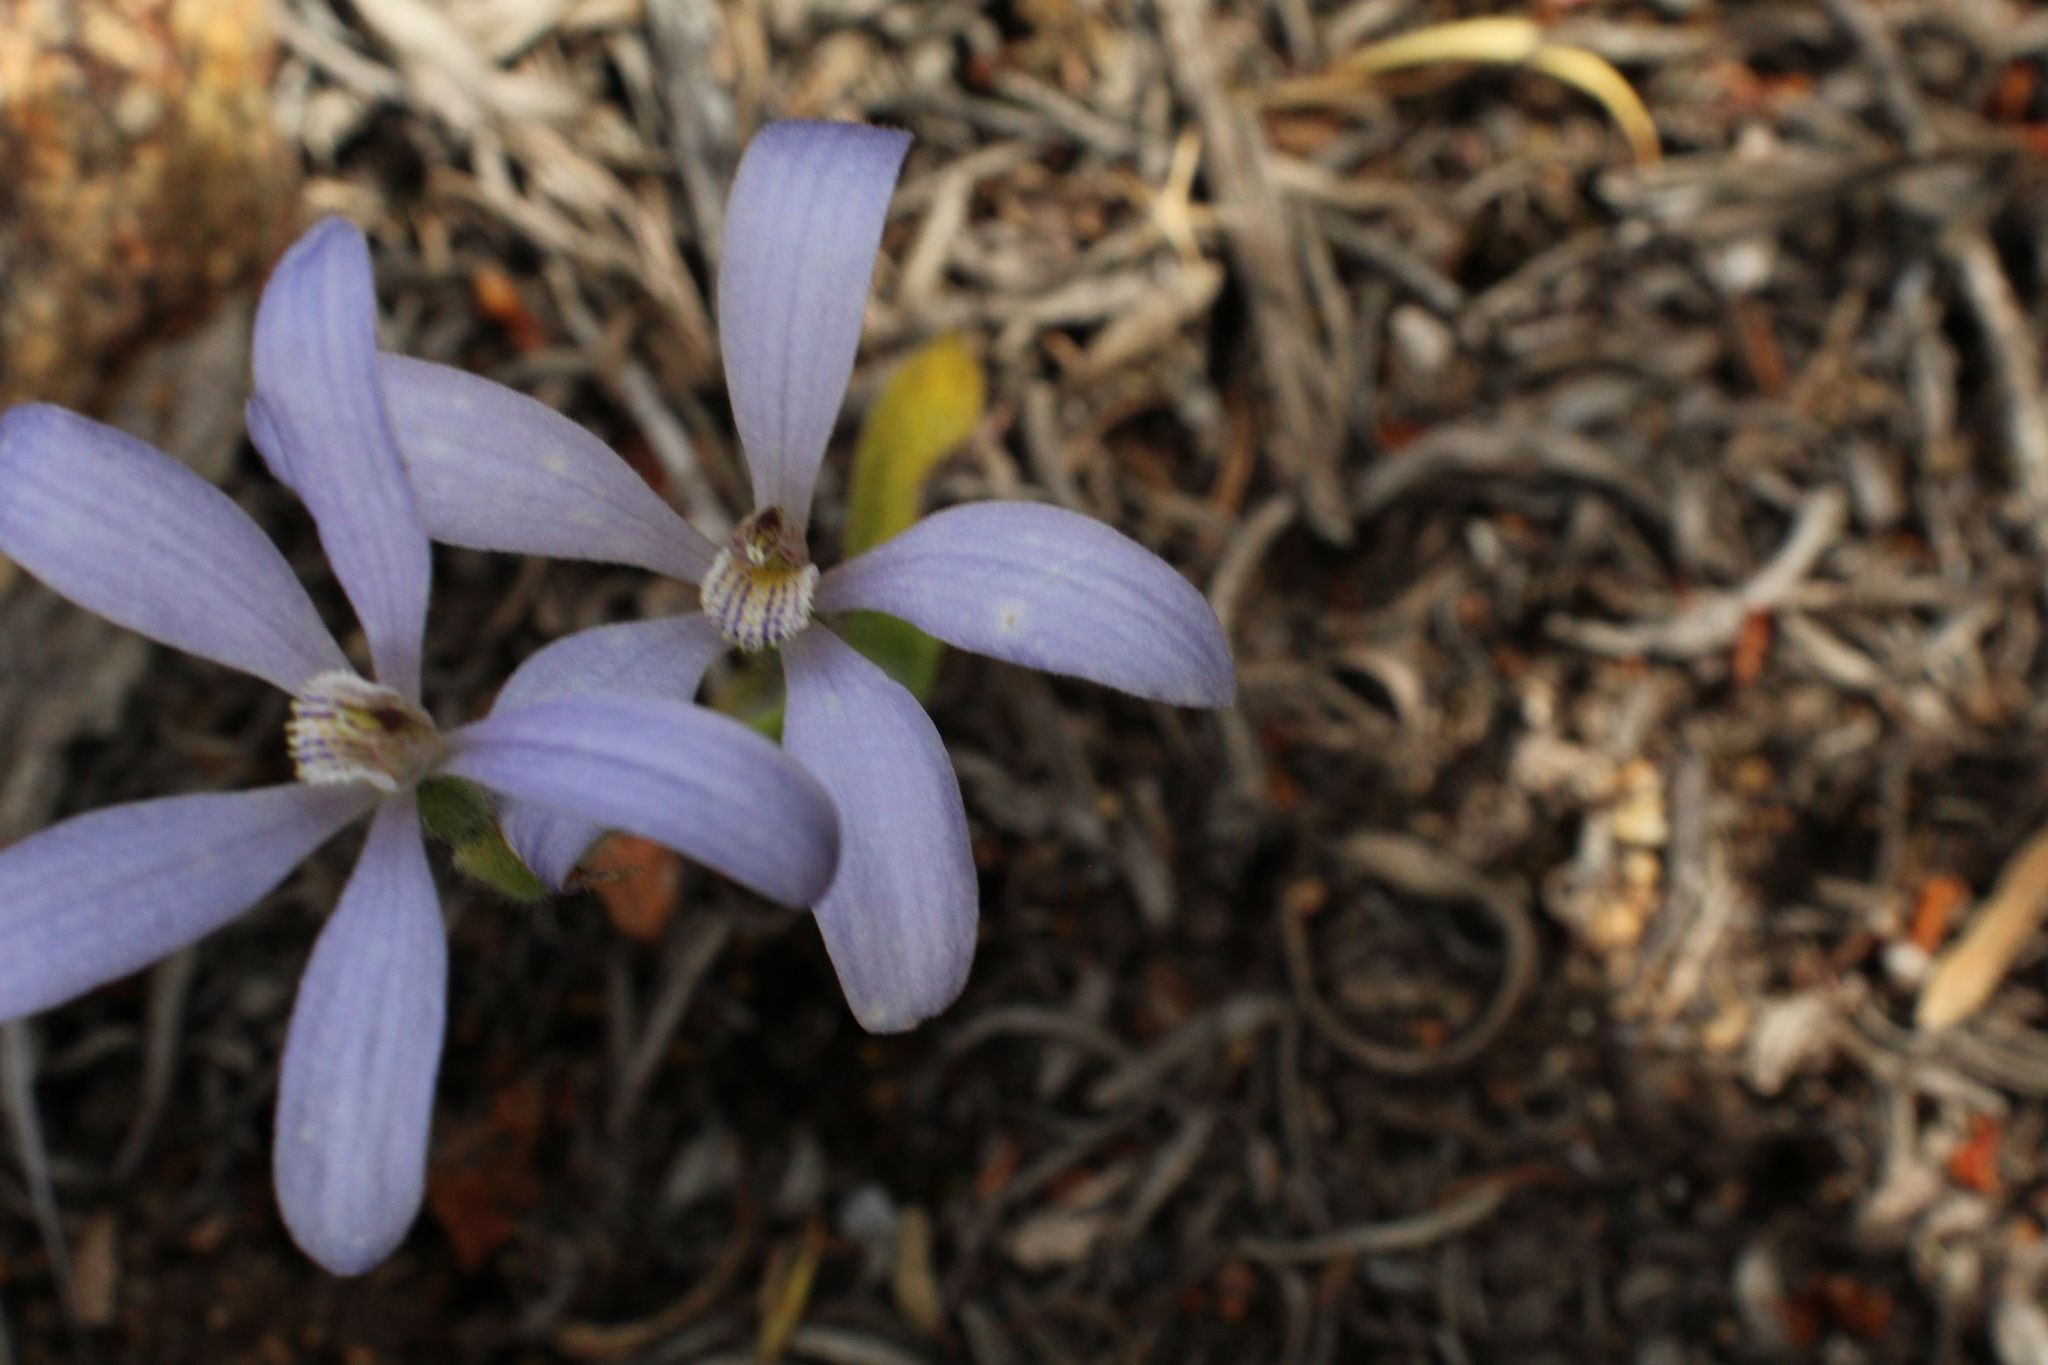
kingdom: Plantae
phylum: Tracheophyta
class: Liliopsida
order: Asparagales
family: Orchidaceae
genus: Caladenia
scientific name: Caladenia gemmata
